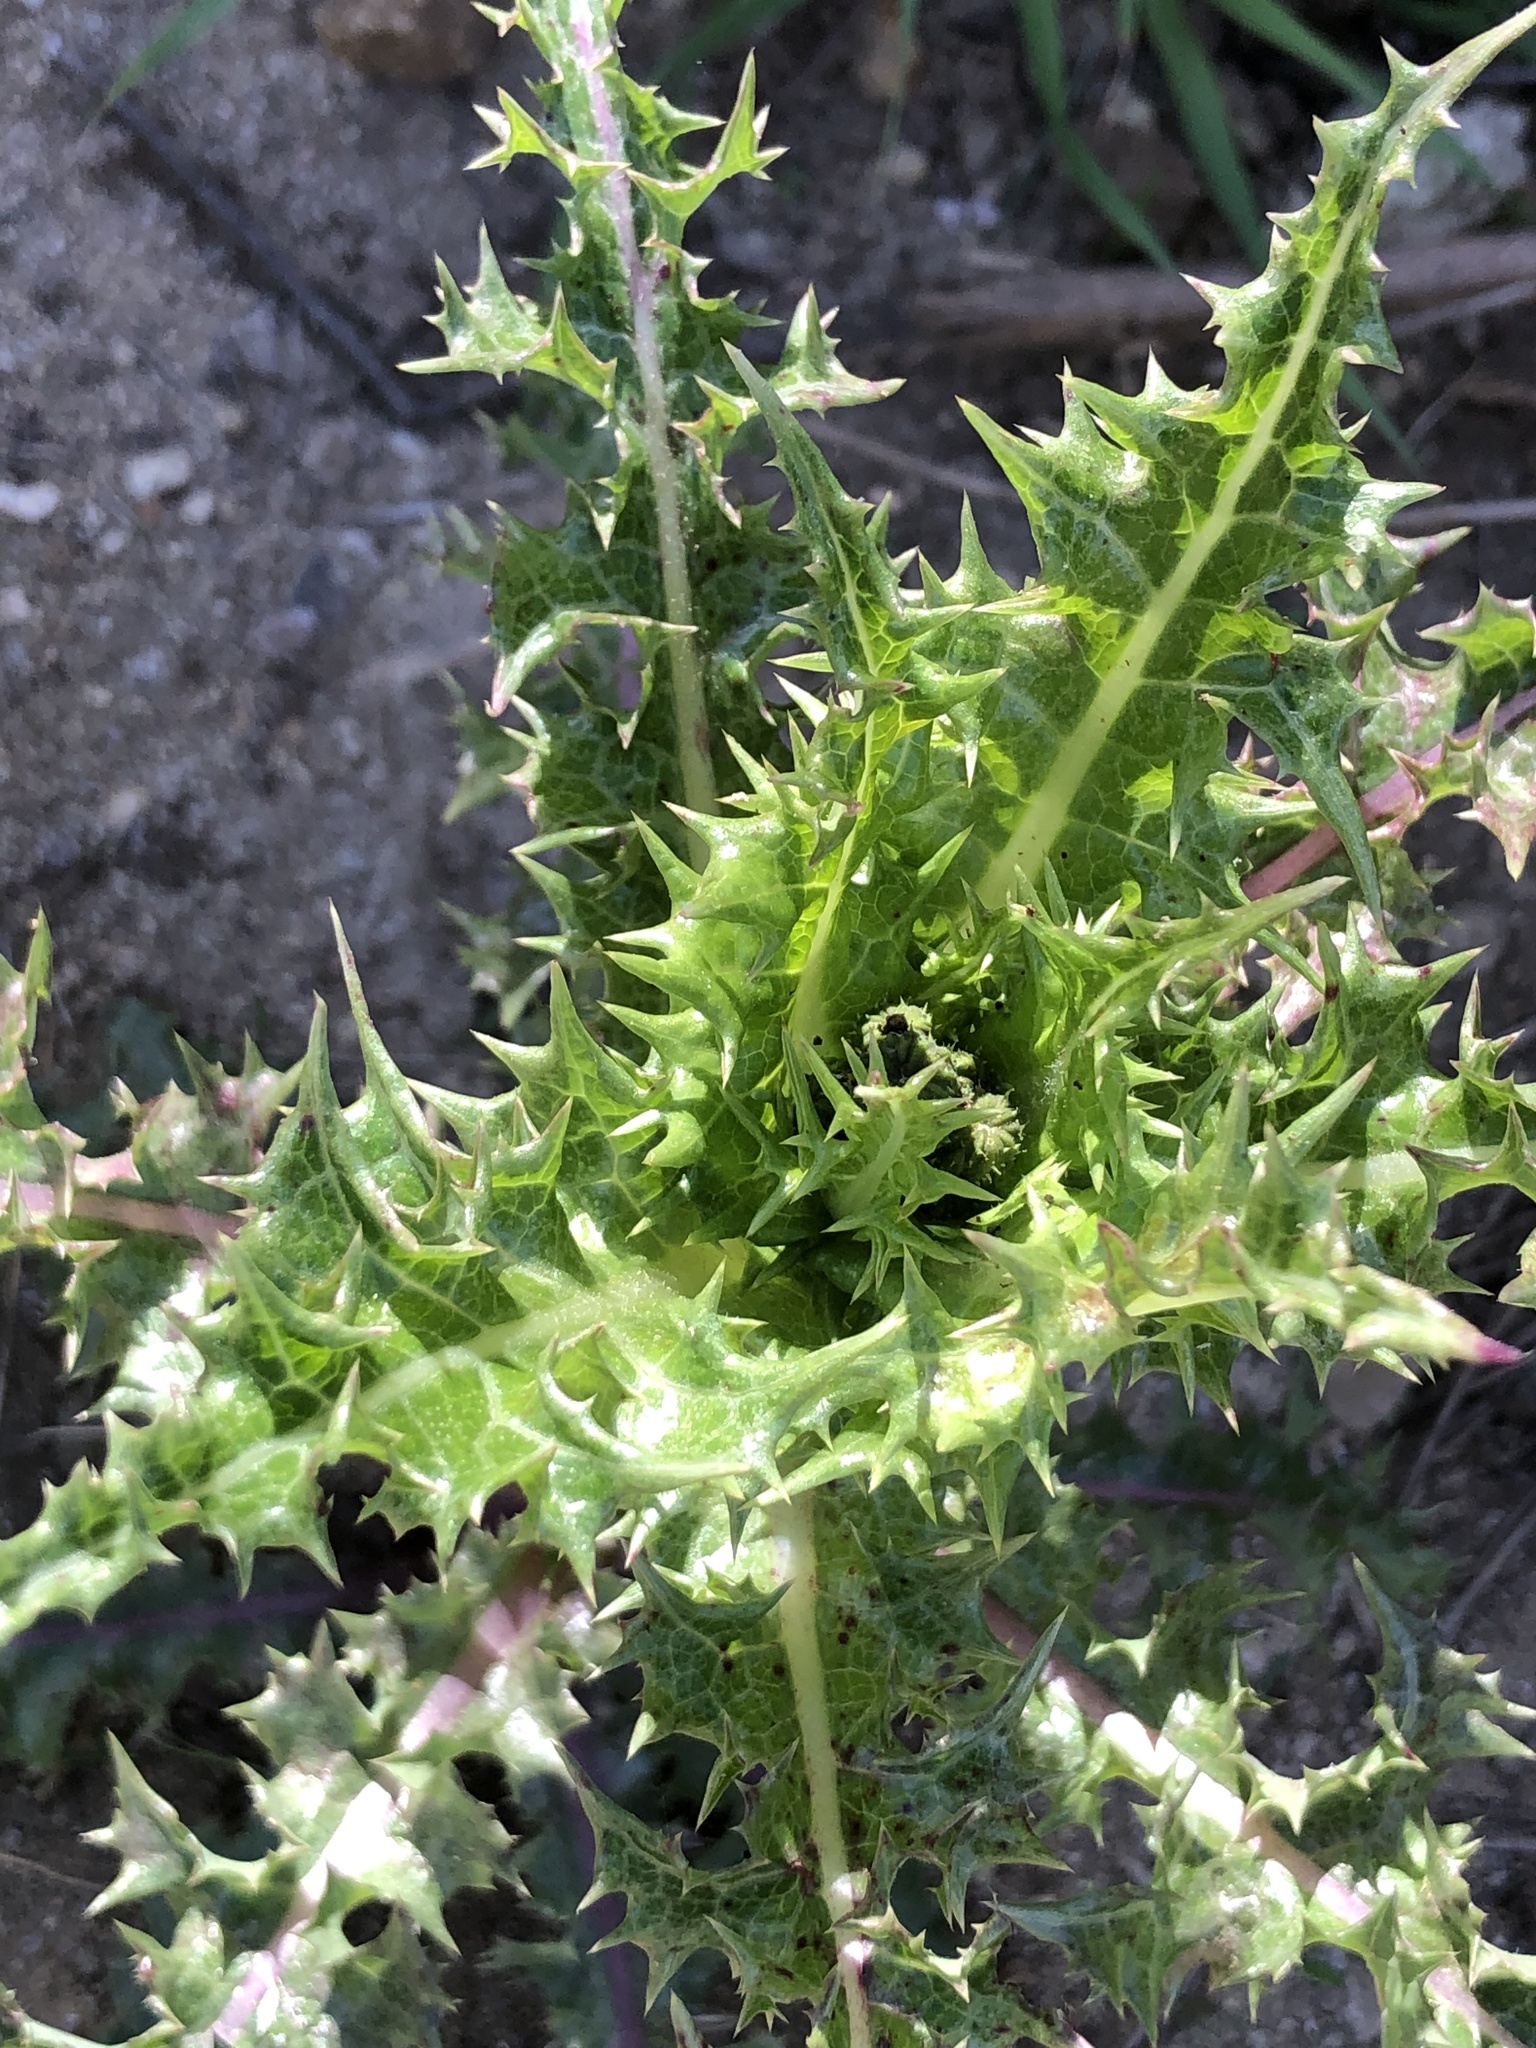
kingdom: Plantae
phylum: Tracheophyta
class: Magnoliopsida
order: Asterales
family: Asteraceae
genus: Sonchus
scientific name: Sonchus asper
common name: Prickly sow-thistle
